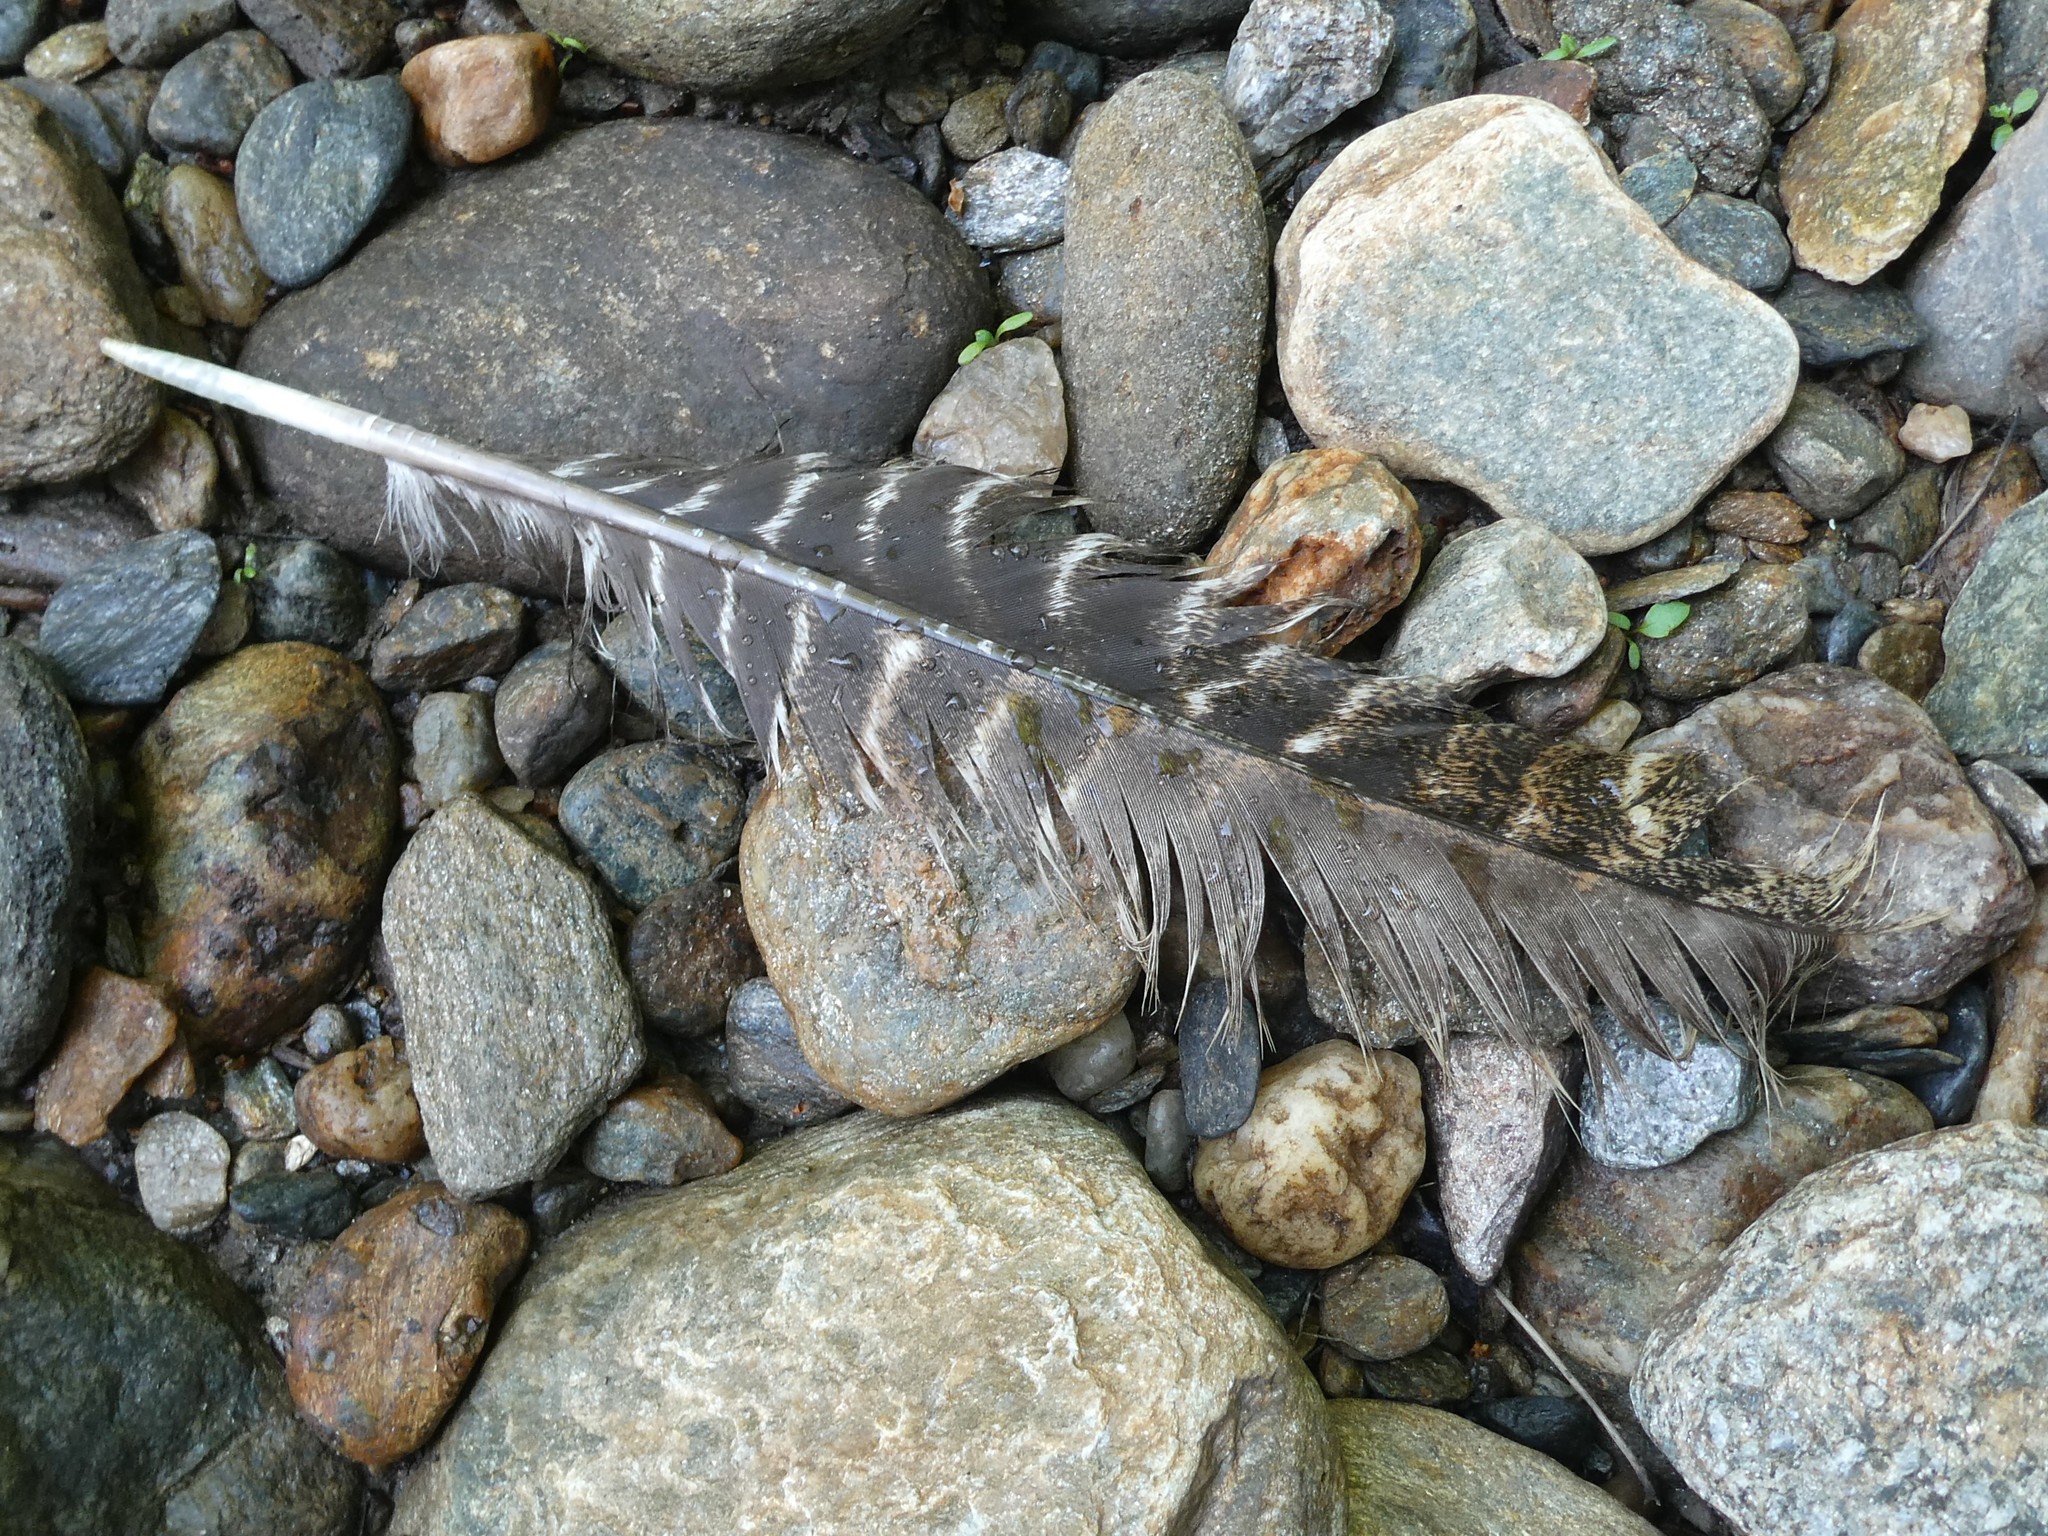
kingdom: Animalia
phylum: Chordata
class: Aves
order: Galliformes
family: Phasianidae
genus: Meleagris
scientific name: Meleagris gallopavo
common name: Wild turkey
